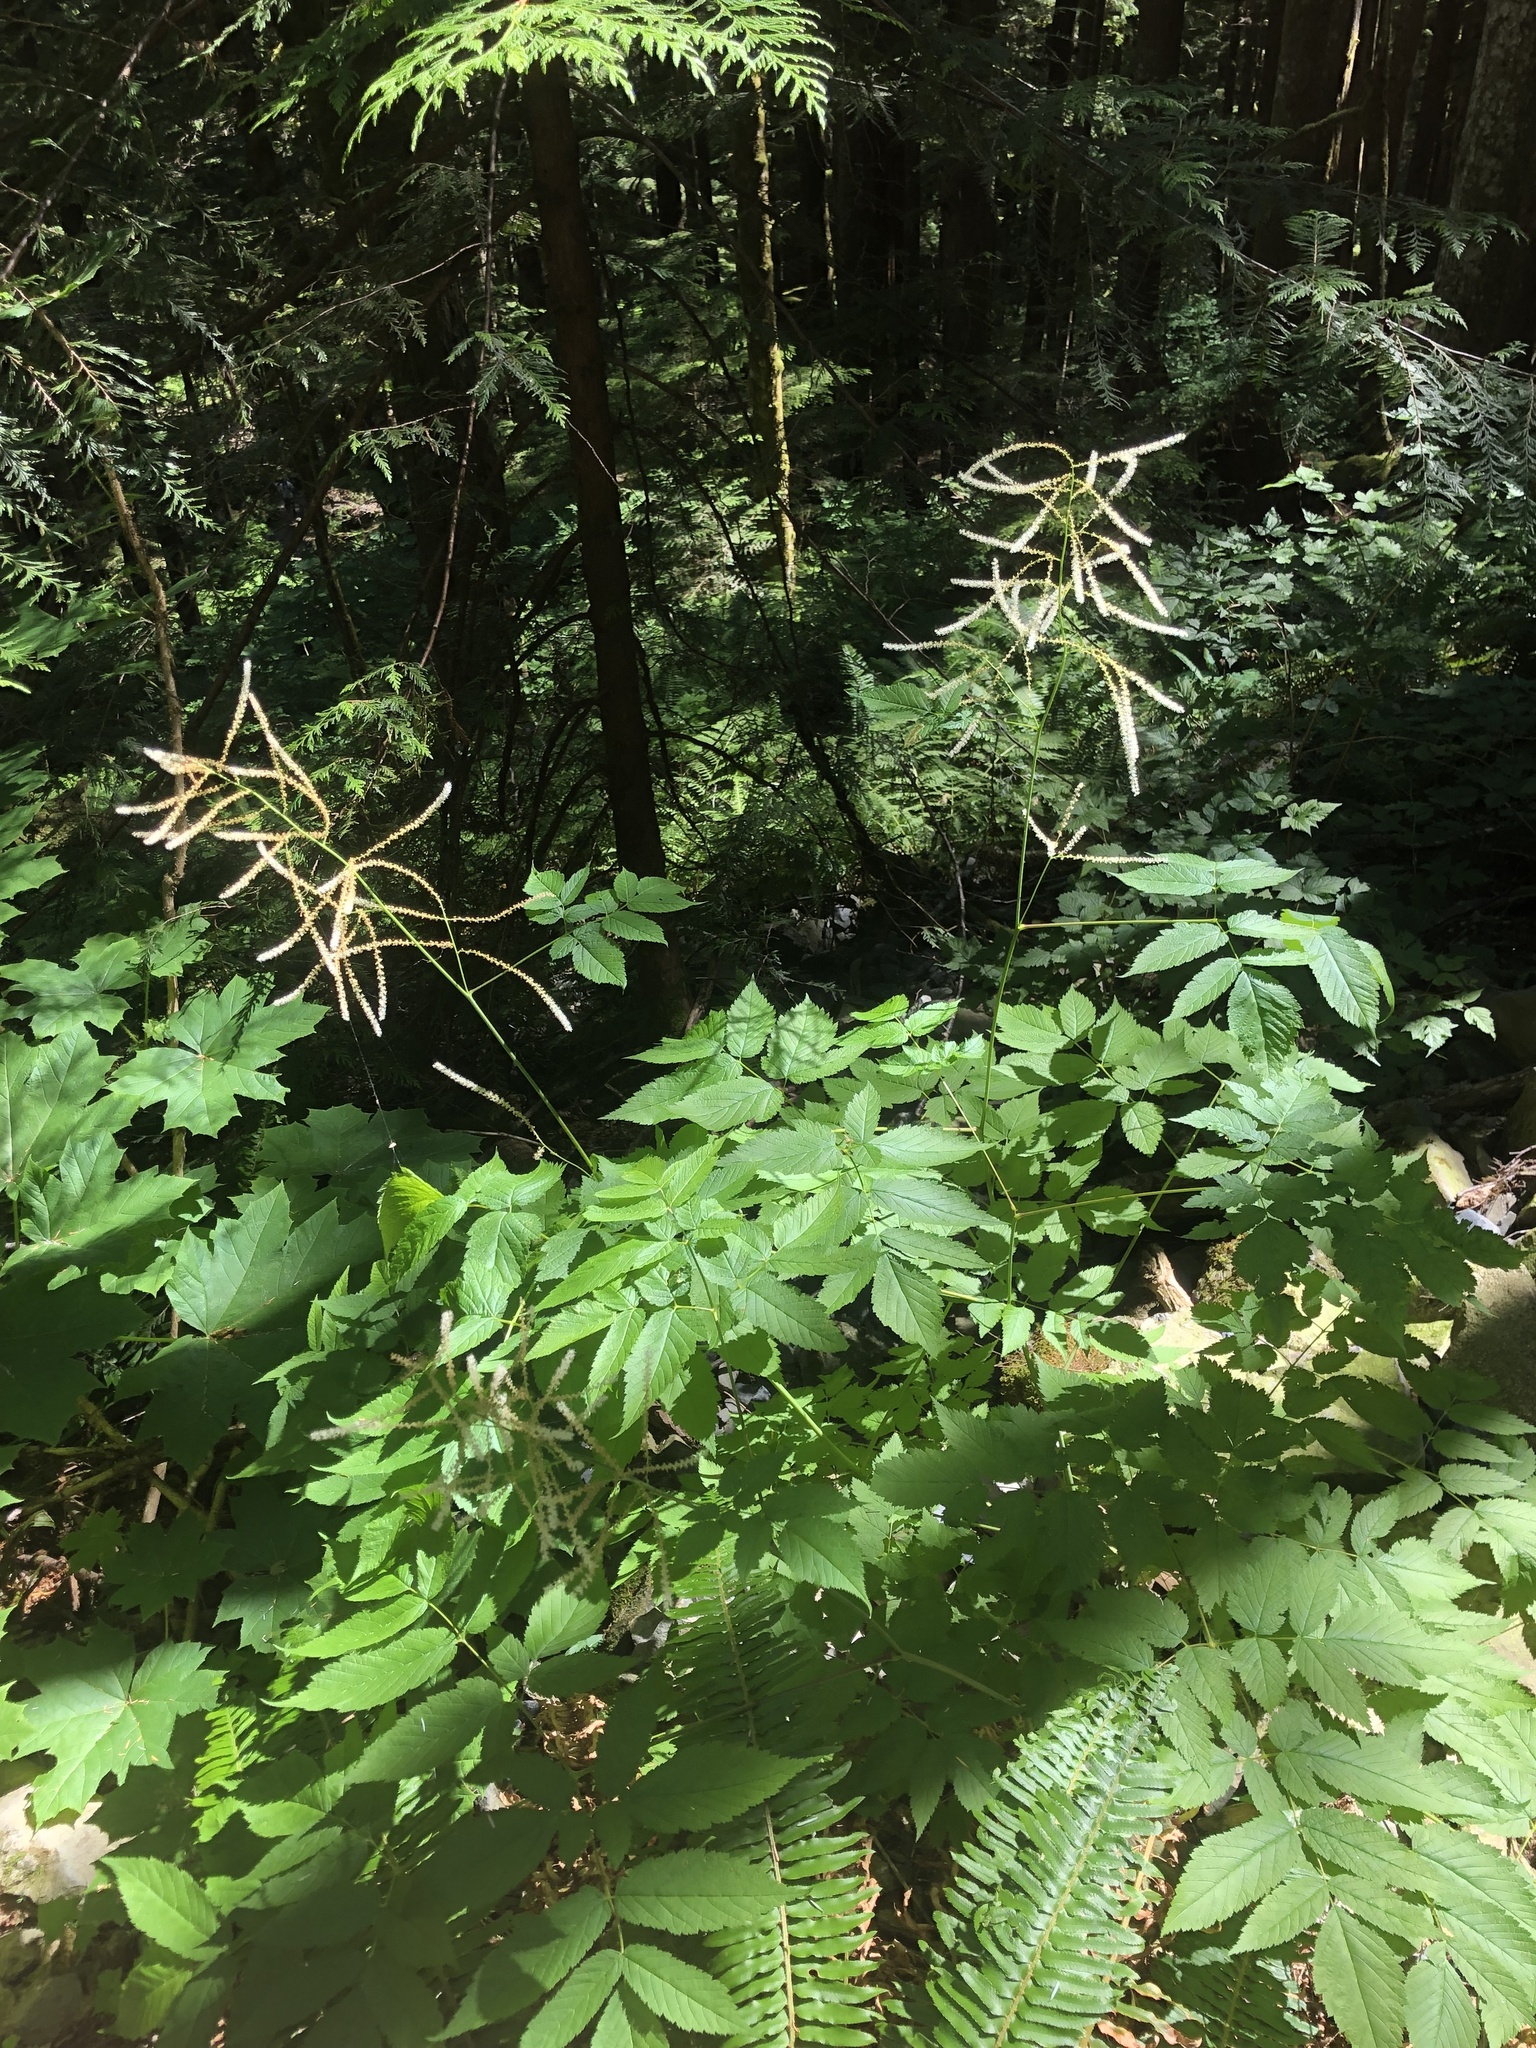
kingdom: Plantae
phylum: Tracheophyta
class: Magnoliopsida
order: Rosales
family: Rosaceae
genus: Aruncus
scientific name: Aruncus dioicus
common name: Buck's-beard
